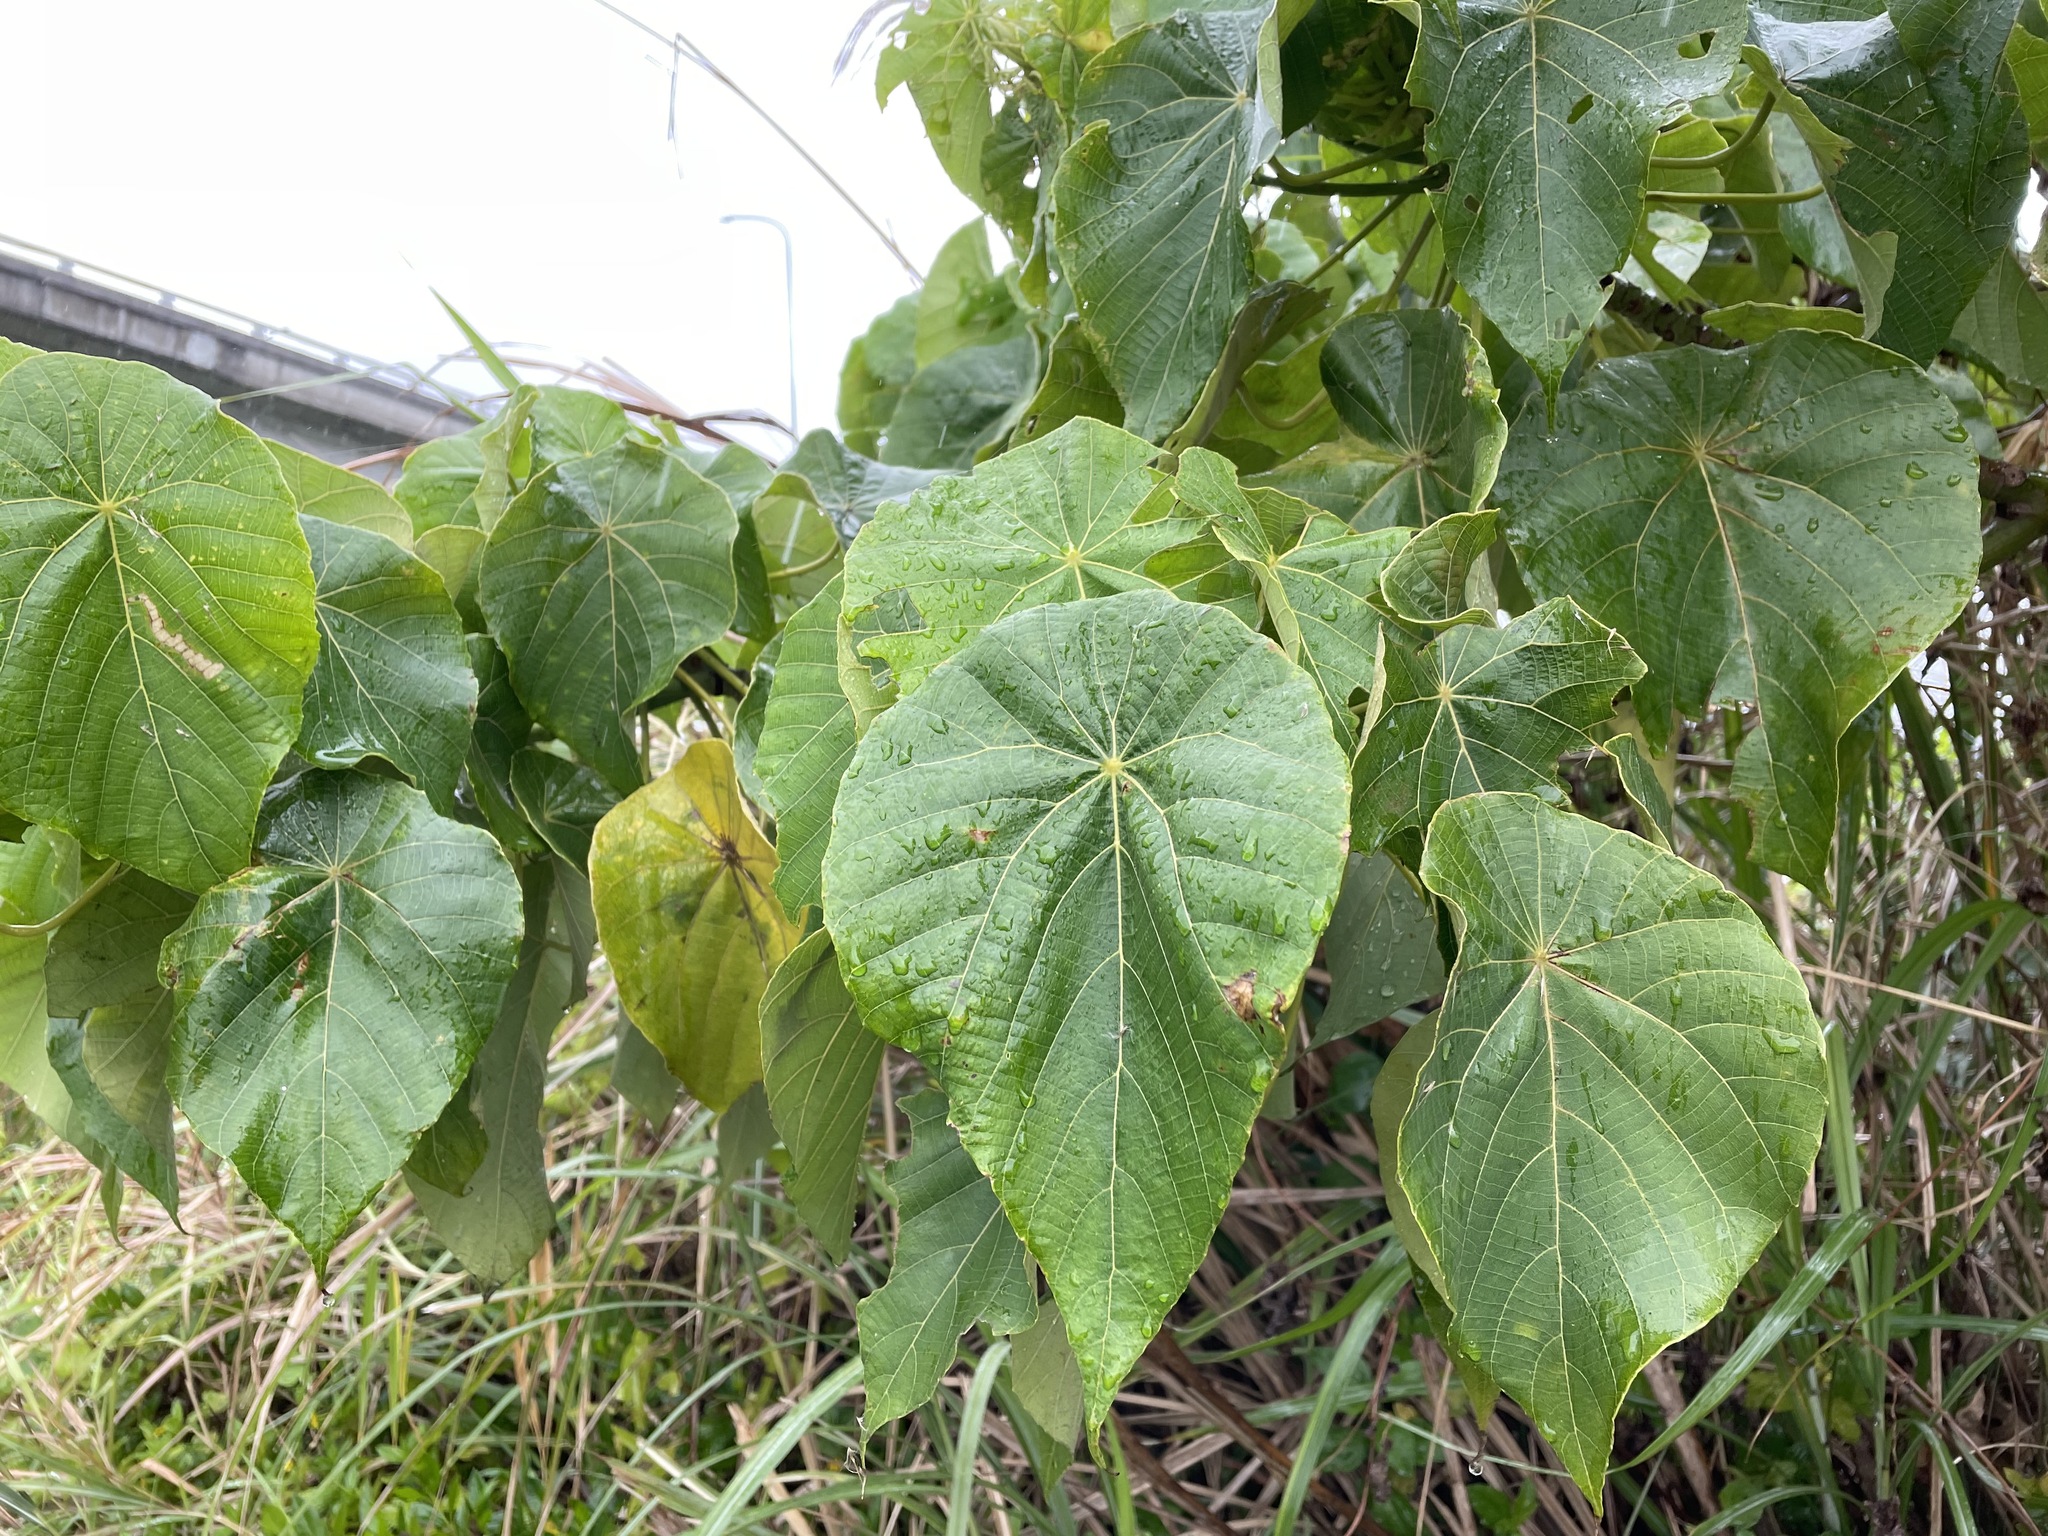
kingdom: Plantae
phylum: Tracheophyta
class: Magnoliopsida
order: Malpighiales
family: Euphorbiaceae
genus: Macaranga
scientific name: Macaranga tanarius
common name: Parasol leaf tree
